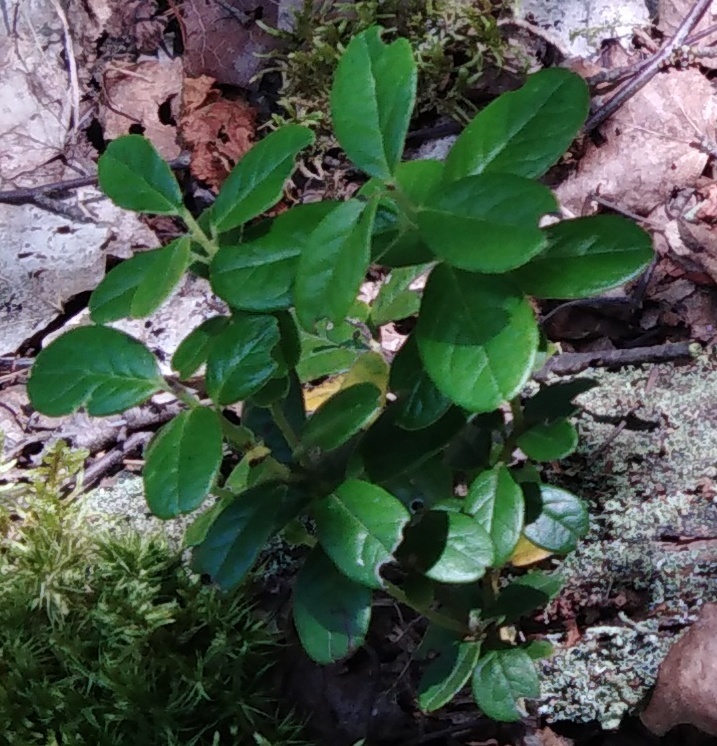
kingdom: Plantae
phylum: Tracheophyta
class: Magnoliopsida
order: Ericales
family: Ericaceae
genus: Vaccinium
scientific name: Vaccinium vitis-idaea
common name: Cowberry
